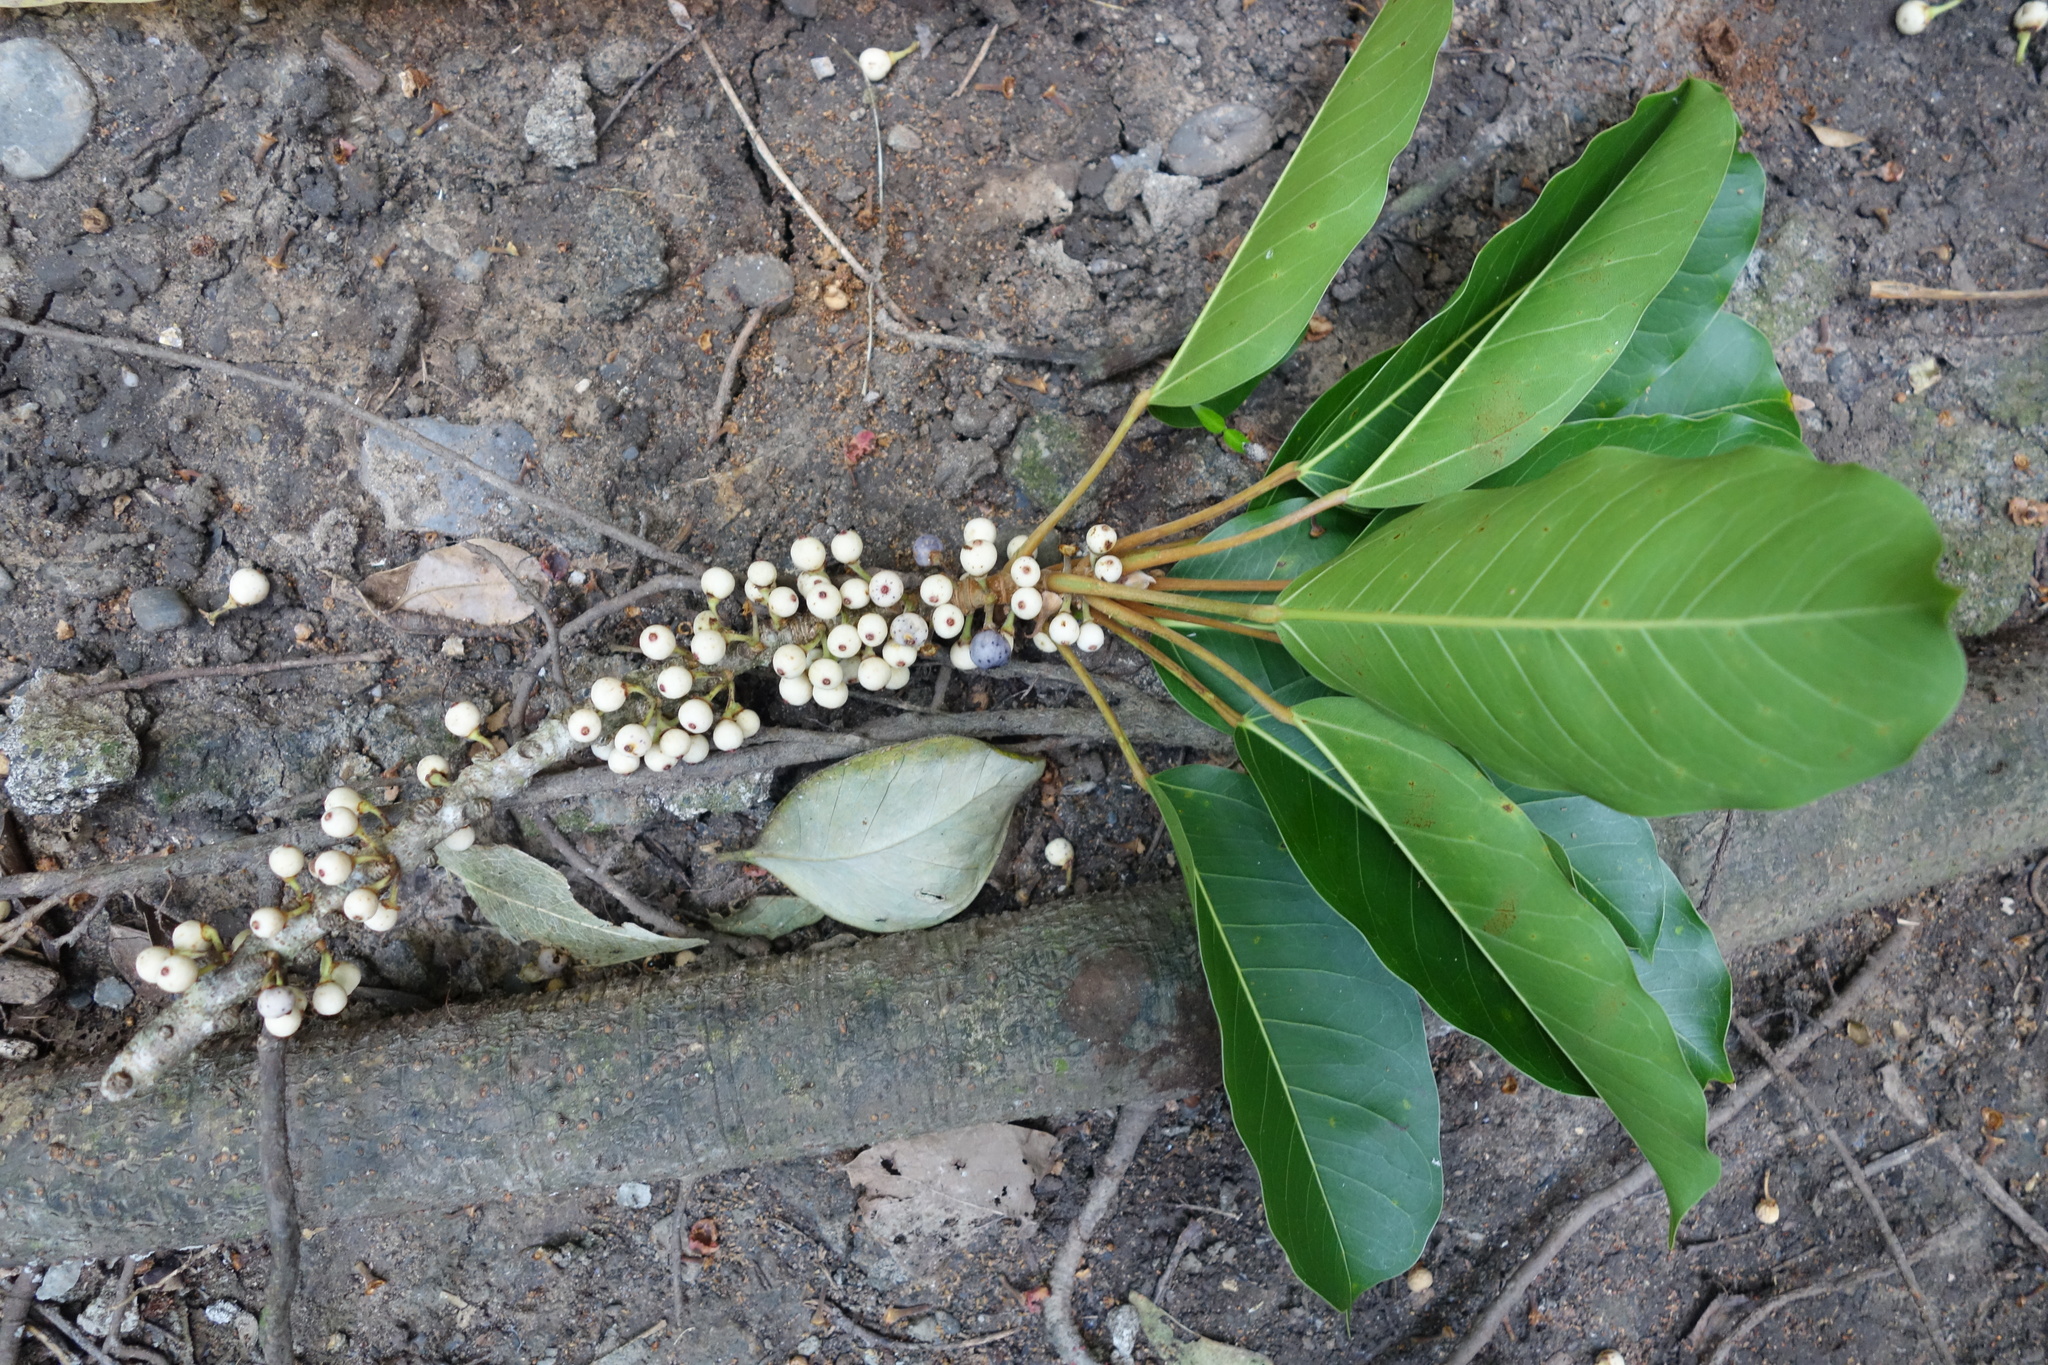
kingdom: Plantae
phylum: Tracheophyta
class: Magnoliopsida
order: Rosales
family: Moraceae
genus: Ficus
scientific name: Ficus subpisocarpa
